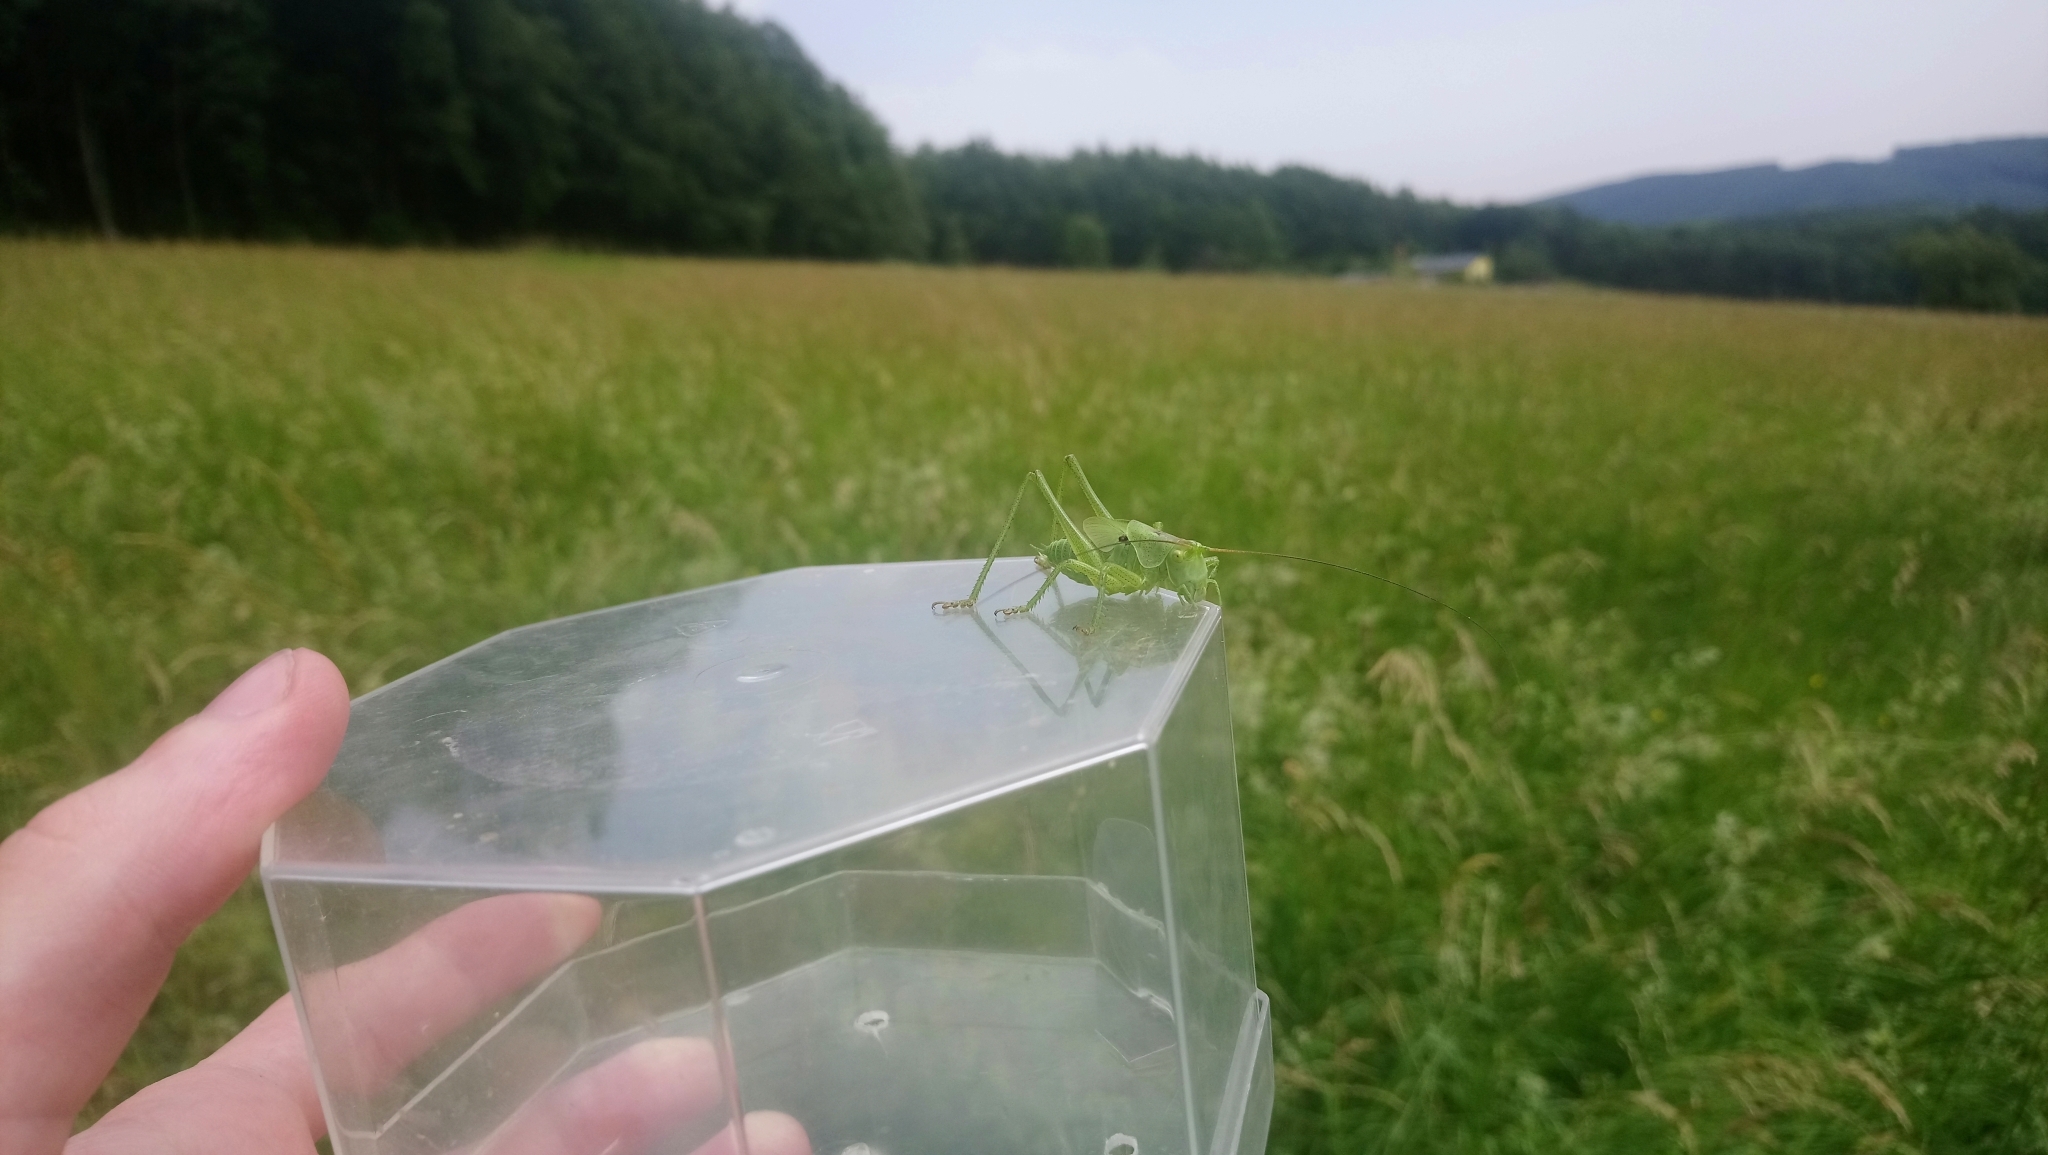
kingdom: Animalia
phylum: Arthropoda
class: Insecta
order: Orthoptera
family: Tettigoniidae
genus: Tettigonia
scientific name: Tettigonia viridissima
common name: Great green bush-cricket
